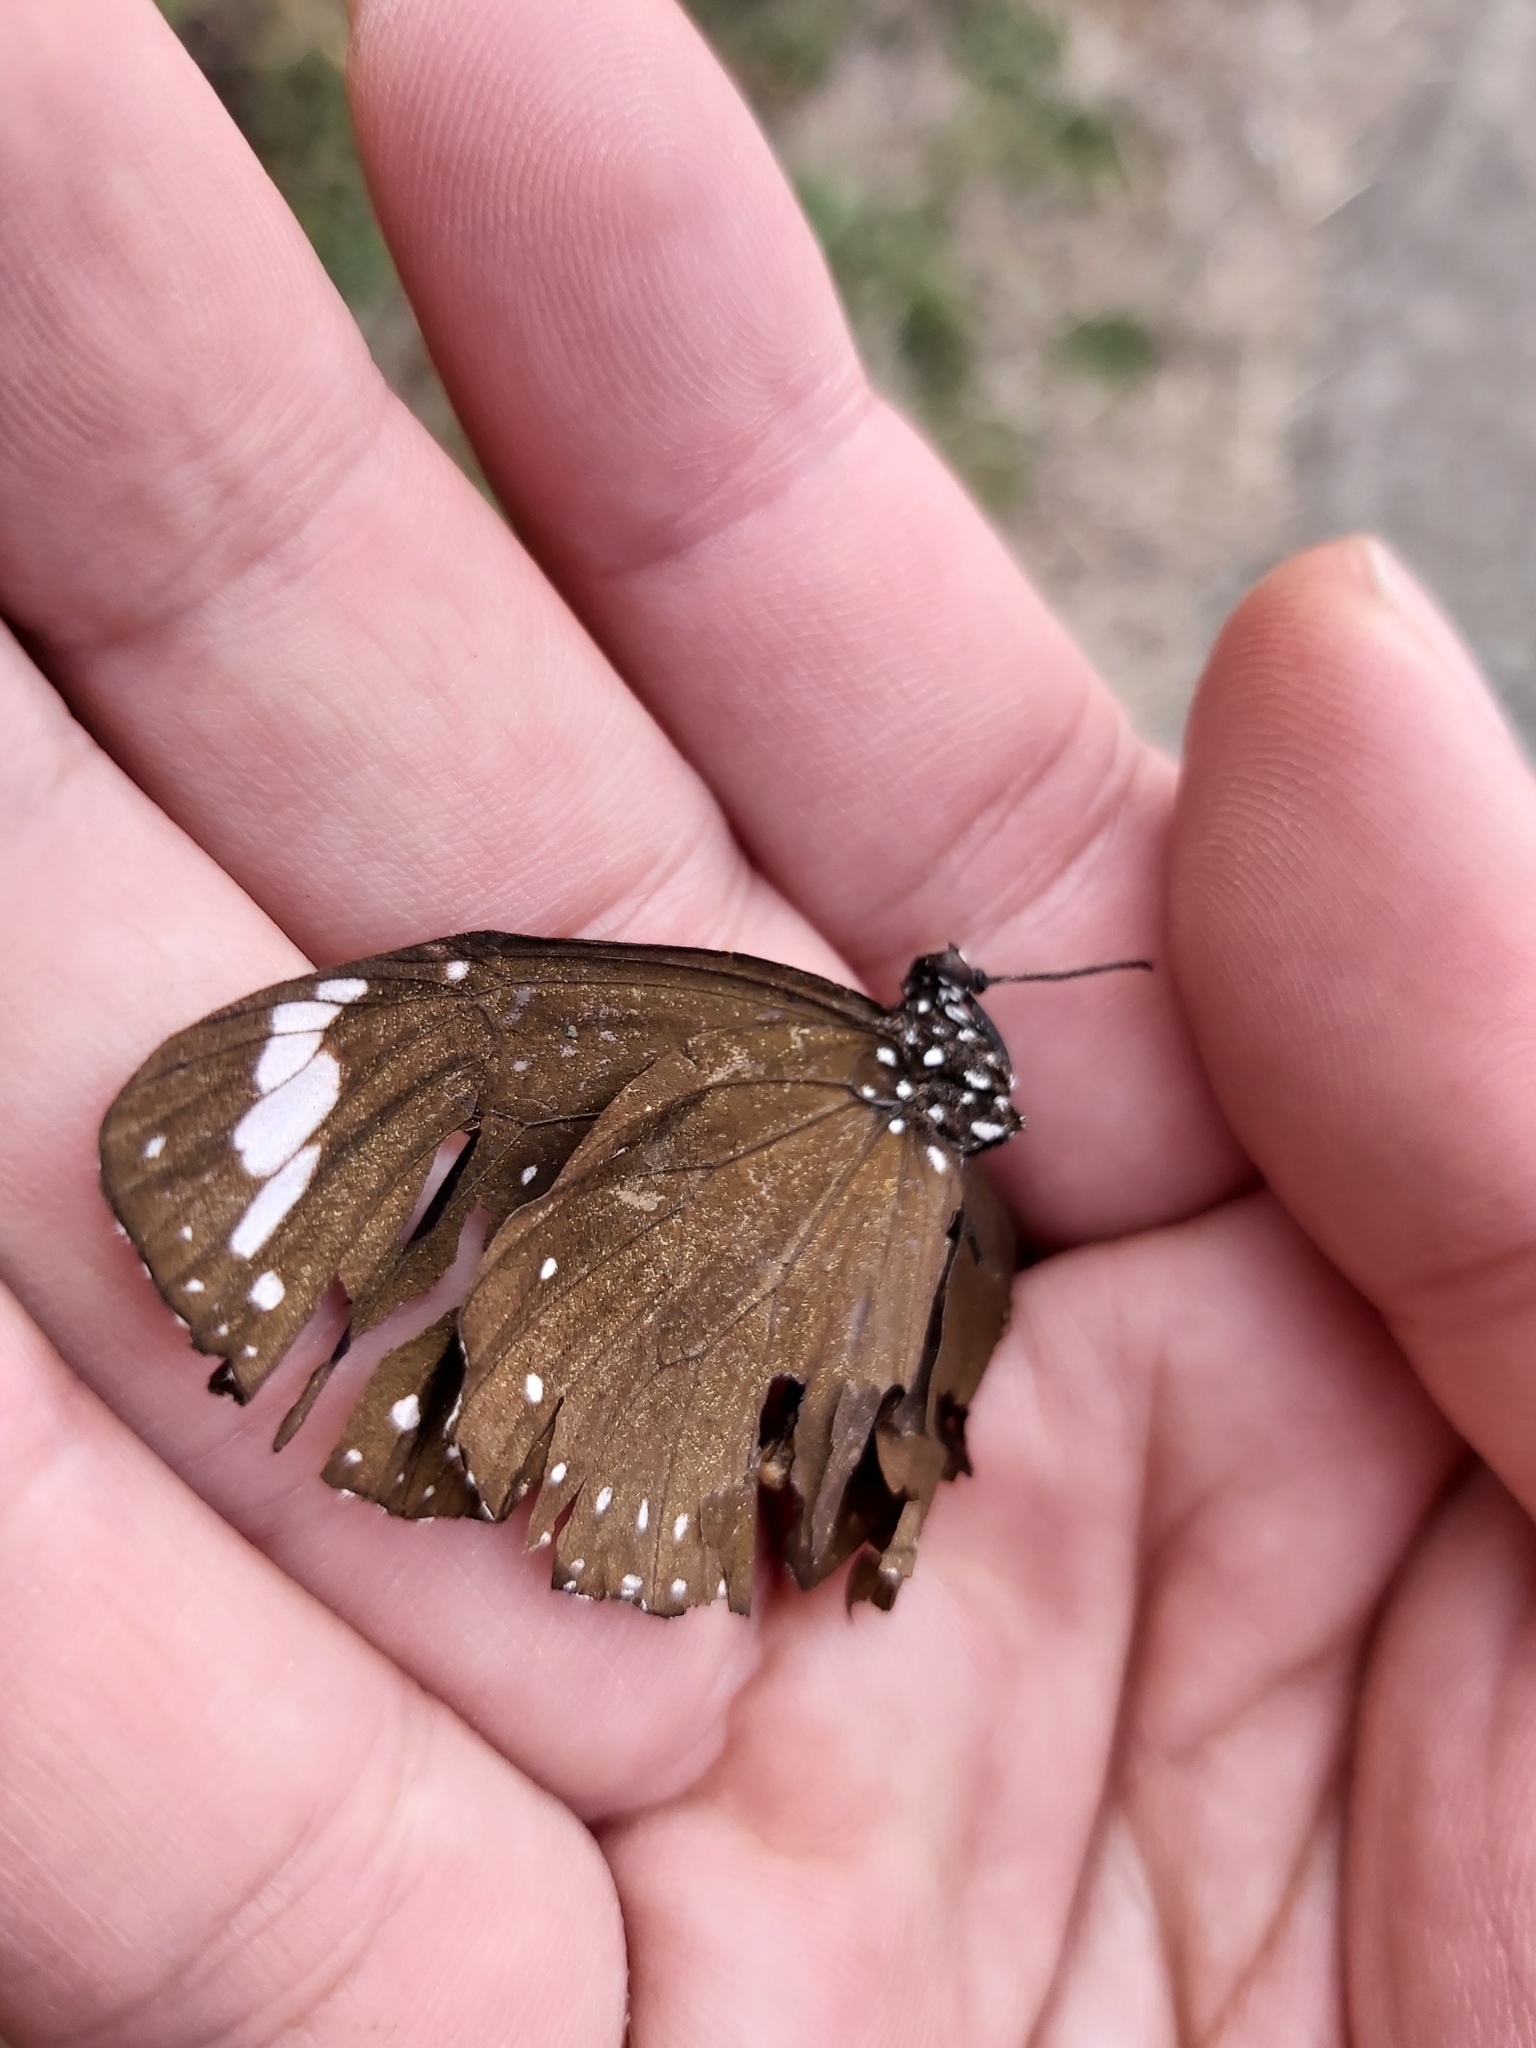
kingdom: Animalia
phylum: Arthropoda
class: Insecta
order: Lepidoptera
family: Nymphalidae
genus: Euploea
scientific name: Euploea tulliolus
